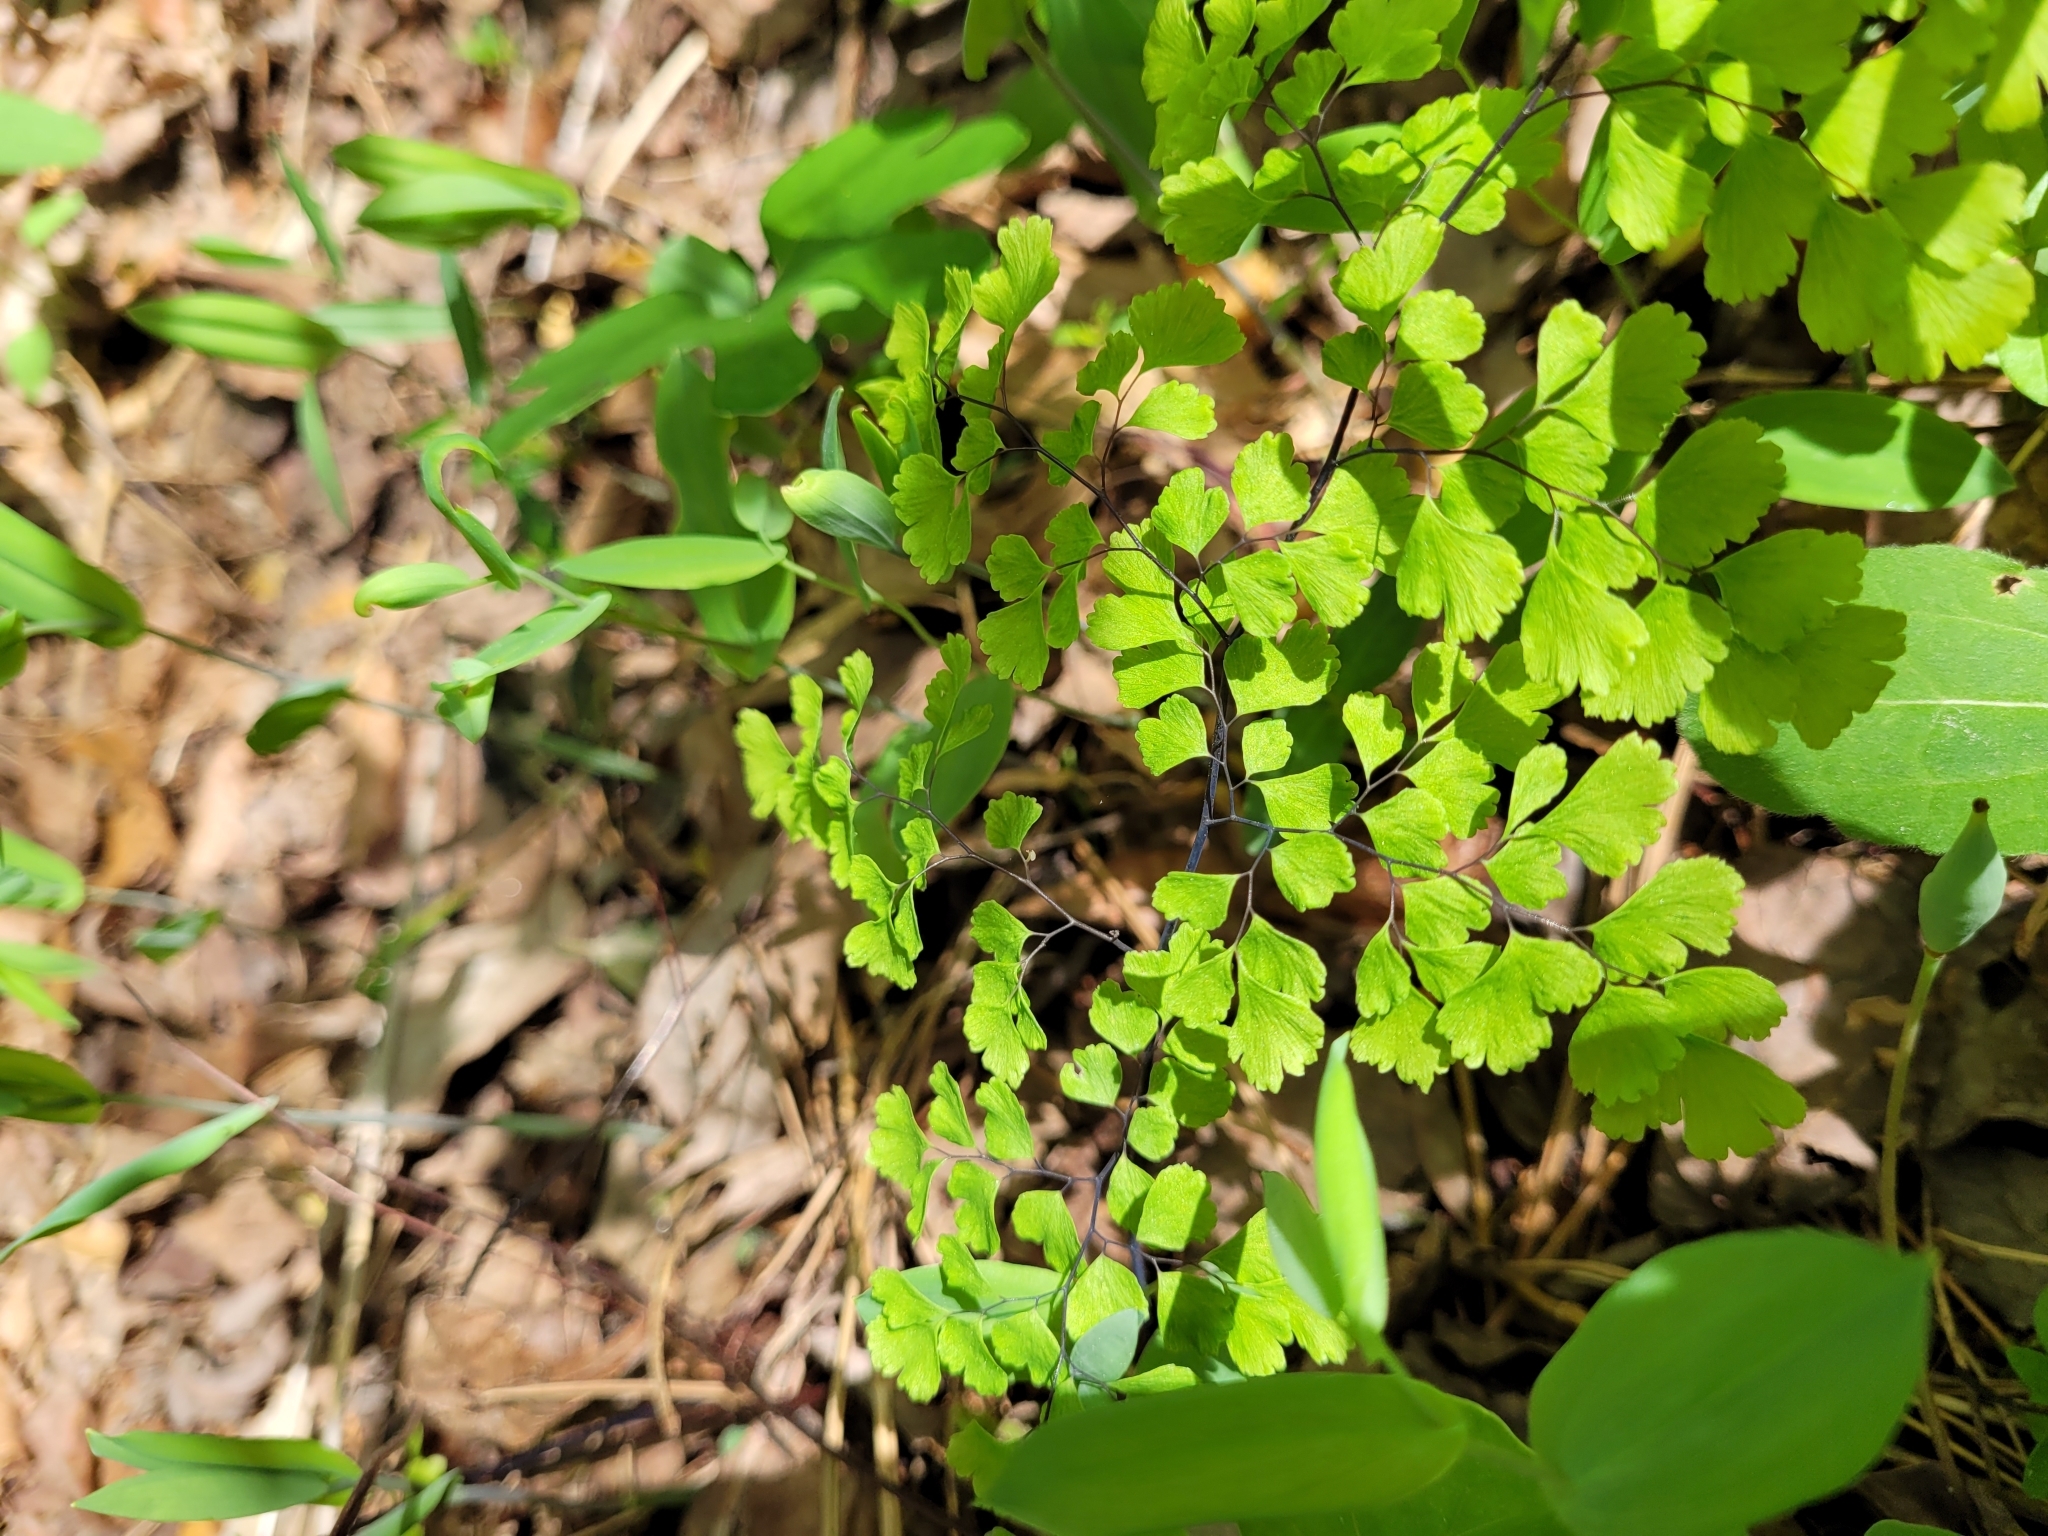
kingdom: Plantae
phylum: Tracheophyta
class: Polypodiopsida
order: Polypodiales
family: Pteridaceae
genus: Adiantum
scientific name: Adiantum capillus-veneris
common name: Maidenhair fern
